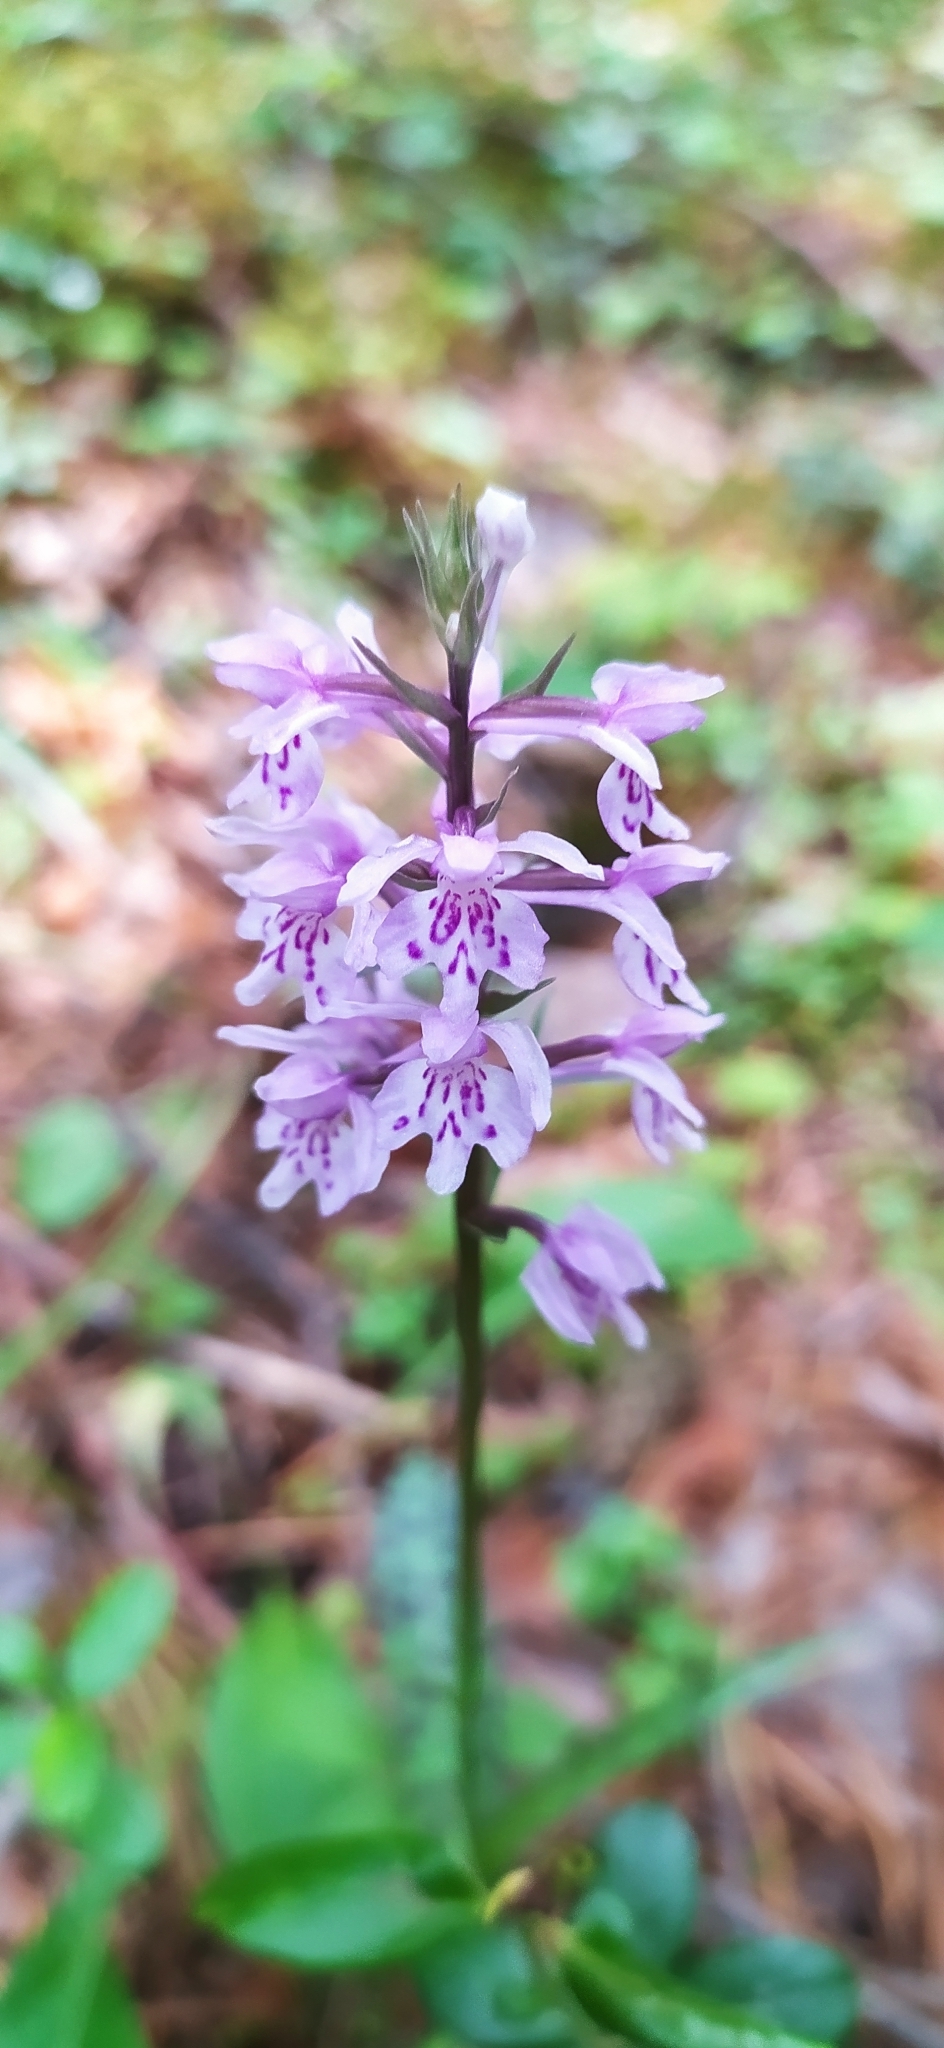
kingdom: Plantae
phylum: Tracheophyta
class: Liliopsida
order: Asparagales
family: Orchidaceae
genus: Dactylorhiza
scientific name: Dactylorhiza maculata
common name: Heath spotted-orchid
